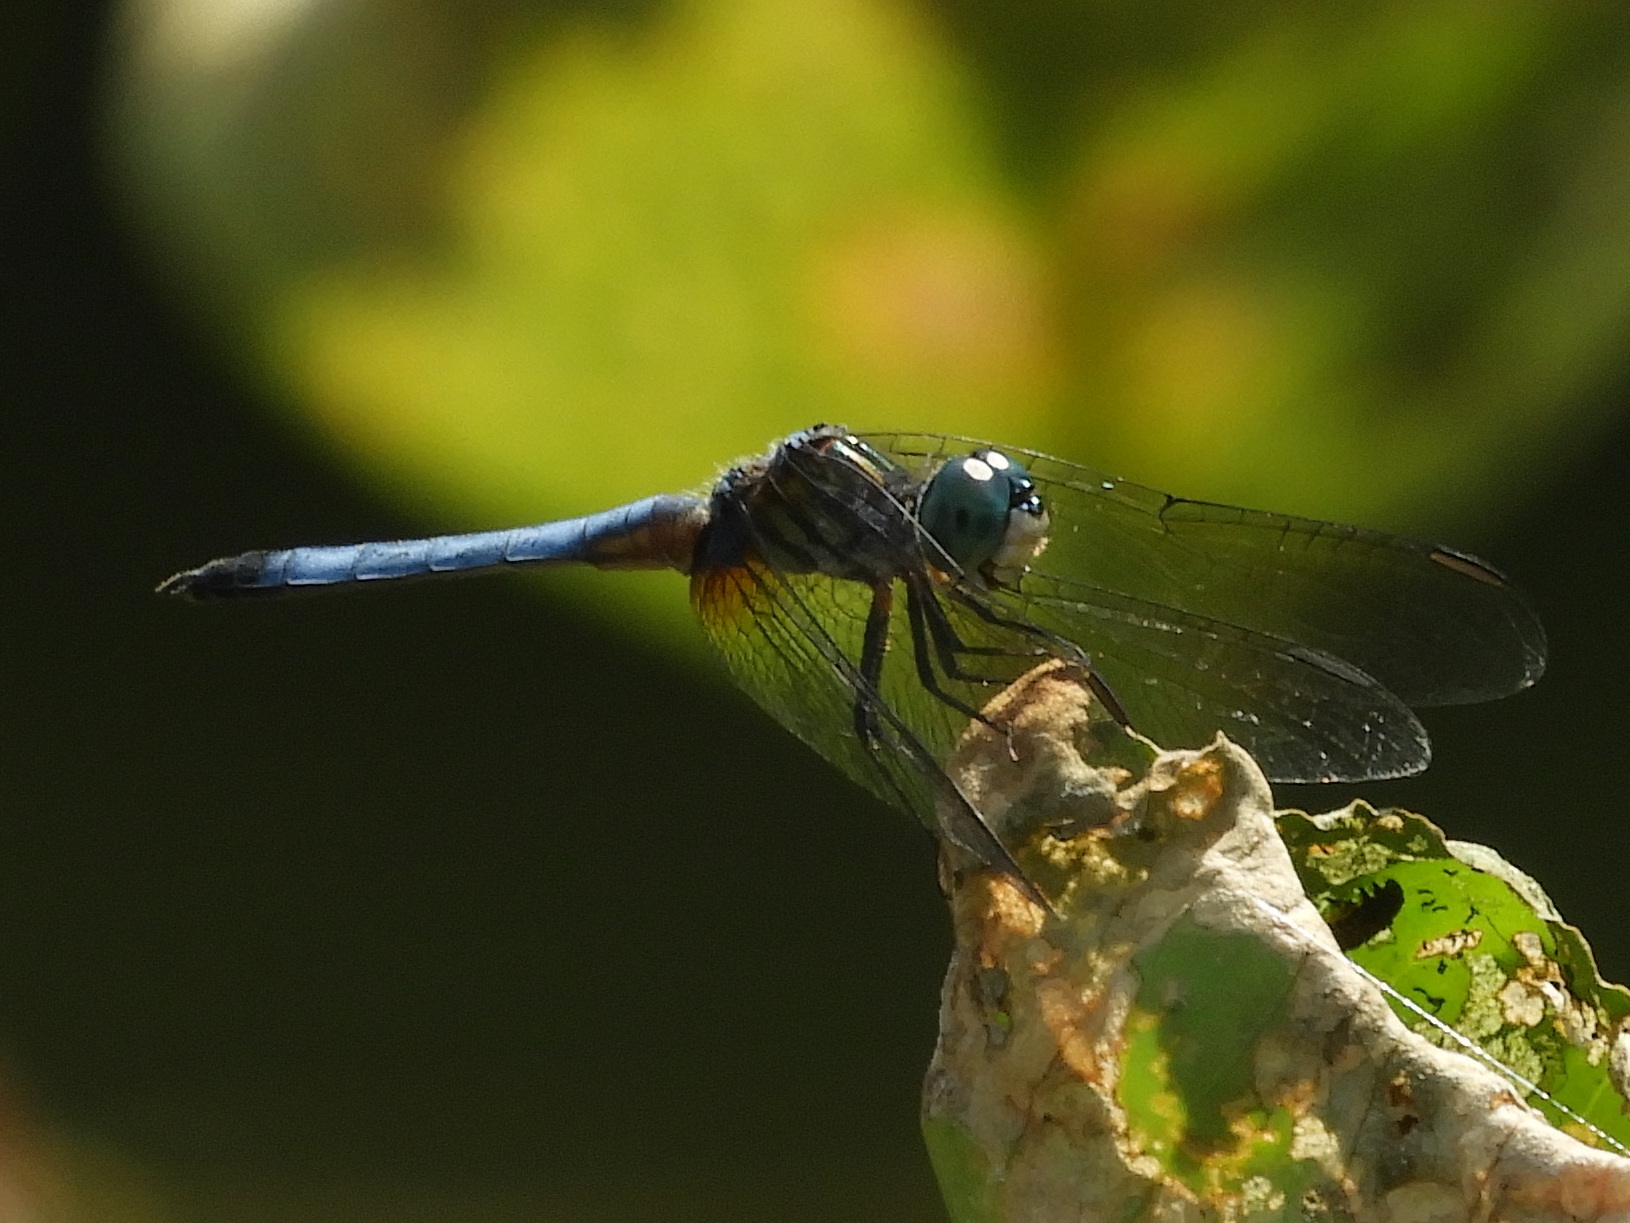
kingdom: Animalia
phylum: Arthropoda
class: Insecta
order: Odonata
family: Libellulidae
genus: Pachydiplax
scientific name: Pachydiplax longipennis
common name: Blue dasher
